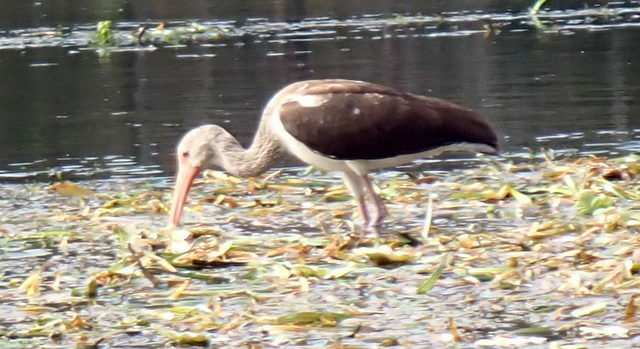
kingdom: Animalia
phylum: Chordata
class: Aves
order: Pelecaniformes
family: Threskiornithidae
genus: Eudocimus
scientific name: Eudocimus albus
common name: White ibis
